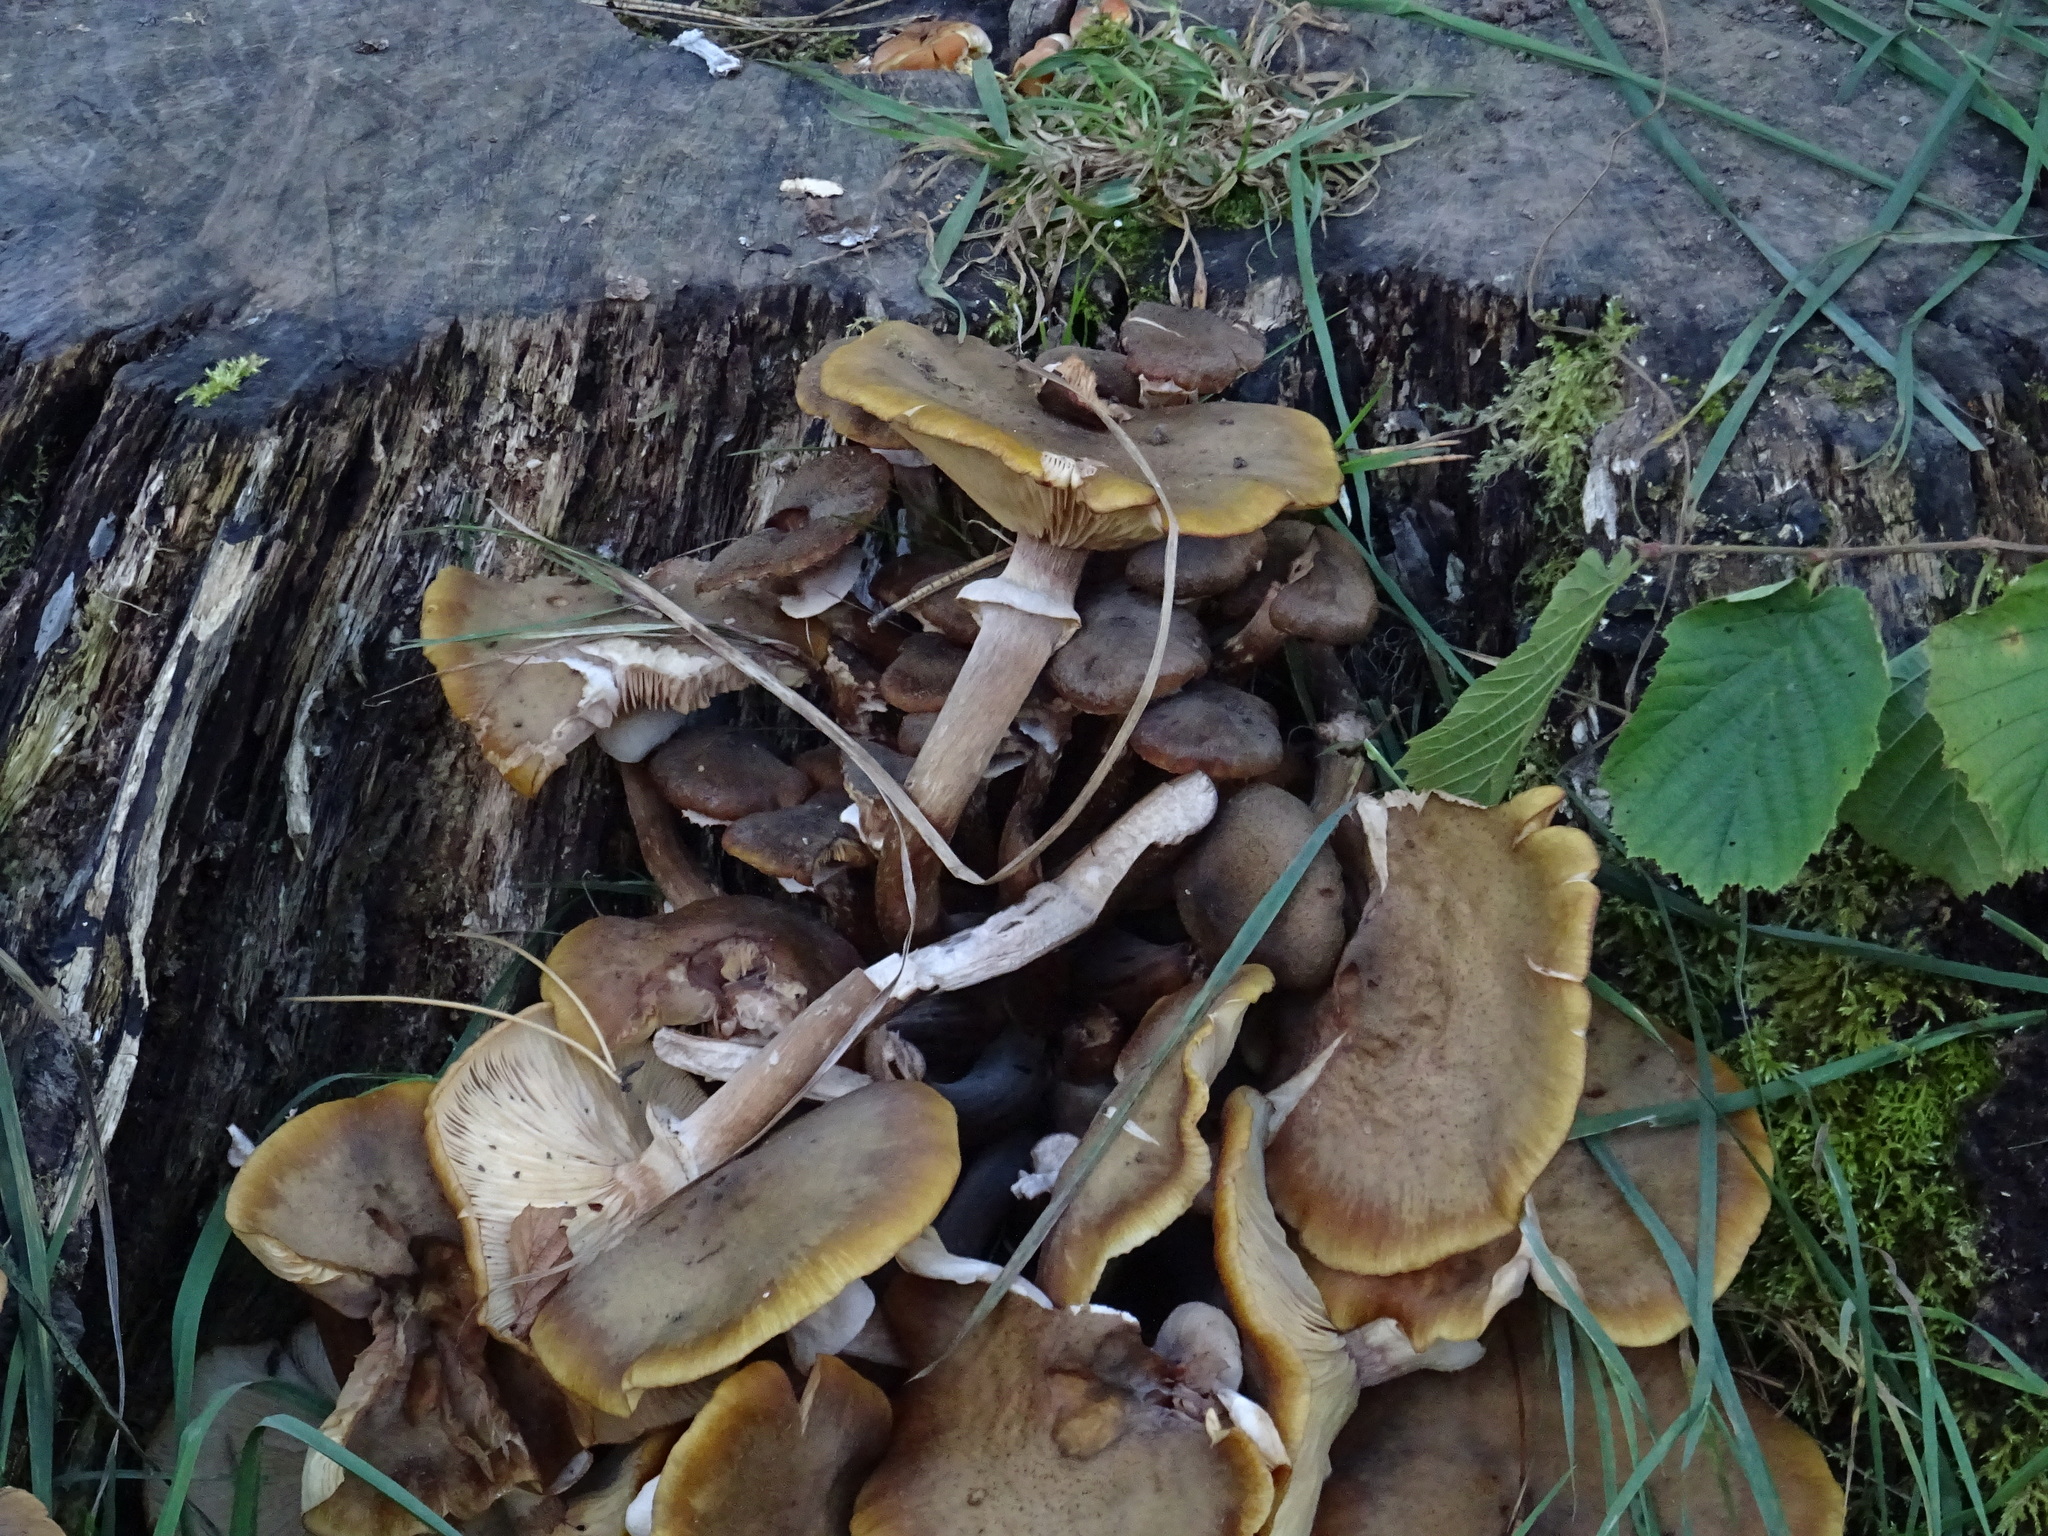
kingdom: Fungi
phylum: Basidiomycota
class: Agaricomycetes
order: Agaricales
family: Physalacriaceae
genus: Armillaria
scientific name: Armillaria mellea
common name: Honey fungus
